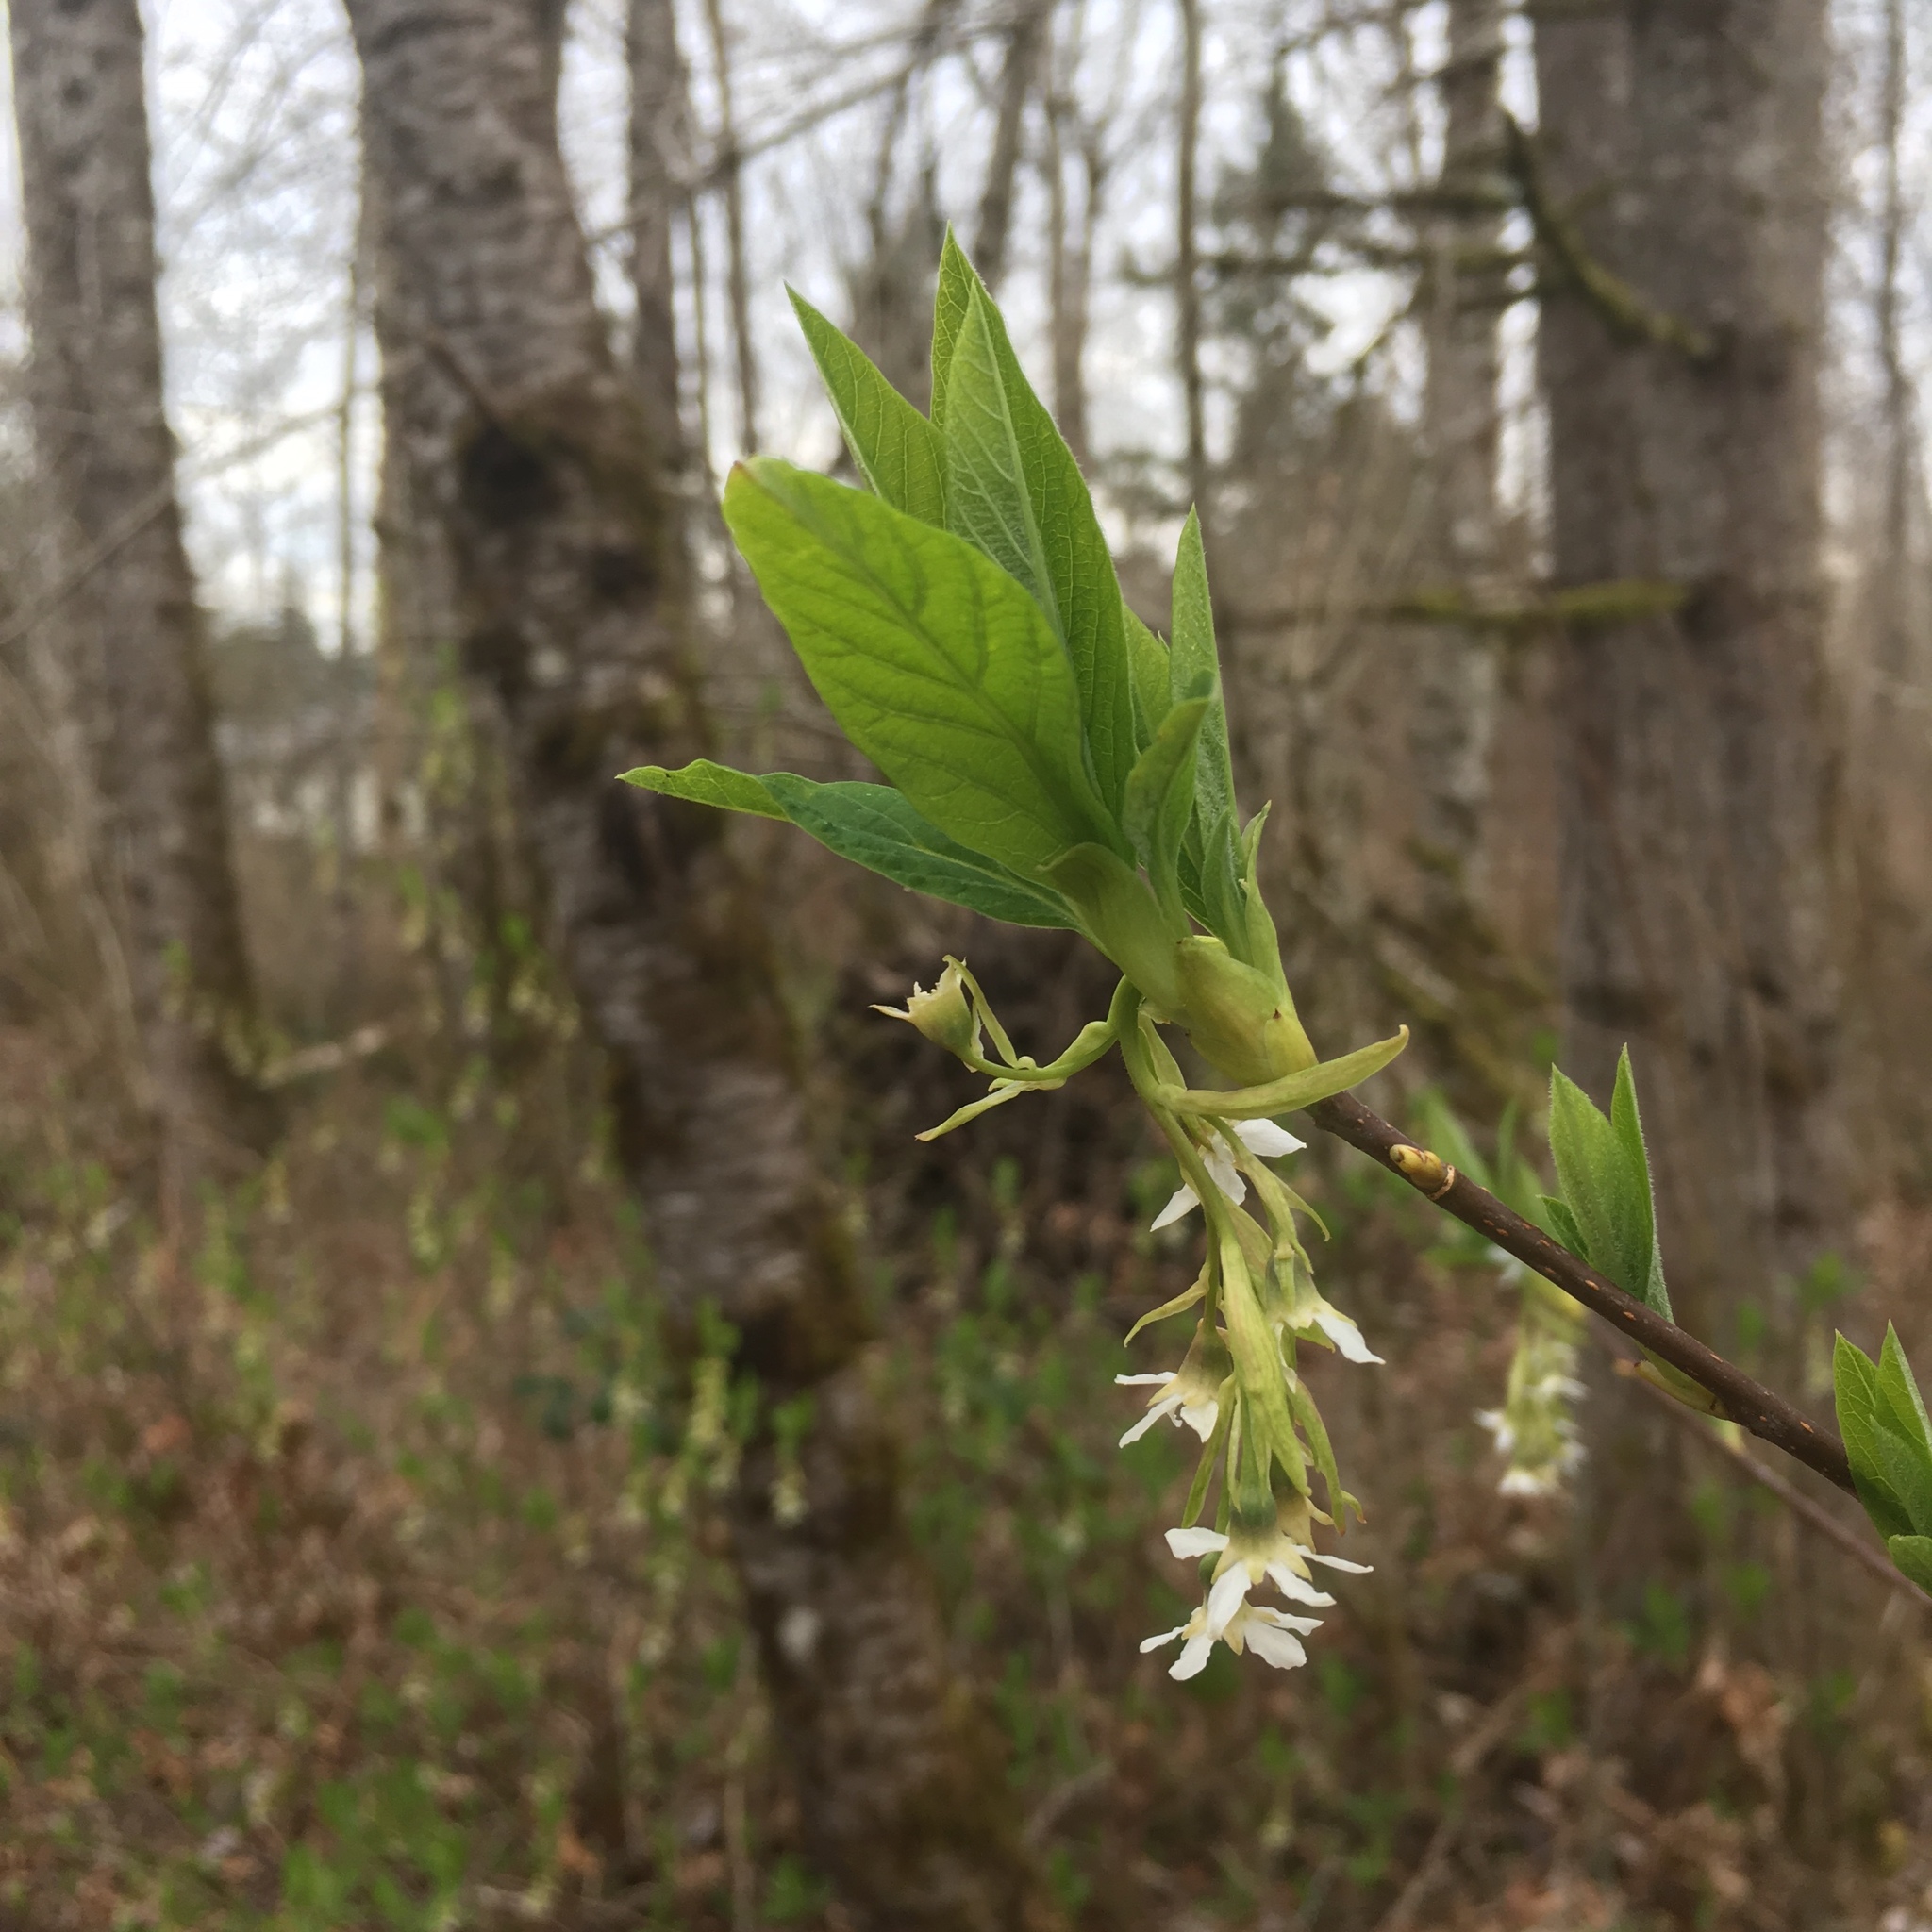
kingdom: Plantae
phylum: Tracheophyta
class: Magnoliopsida
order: Rosales
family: Rosaceae
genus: Oemleria
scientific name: Oemleria cerasiformis
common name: Osoberry
